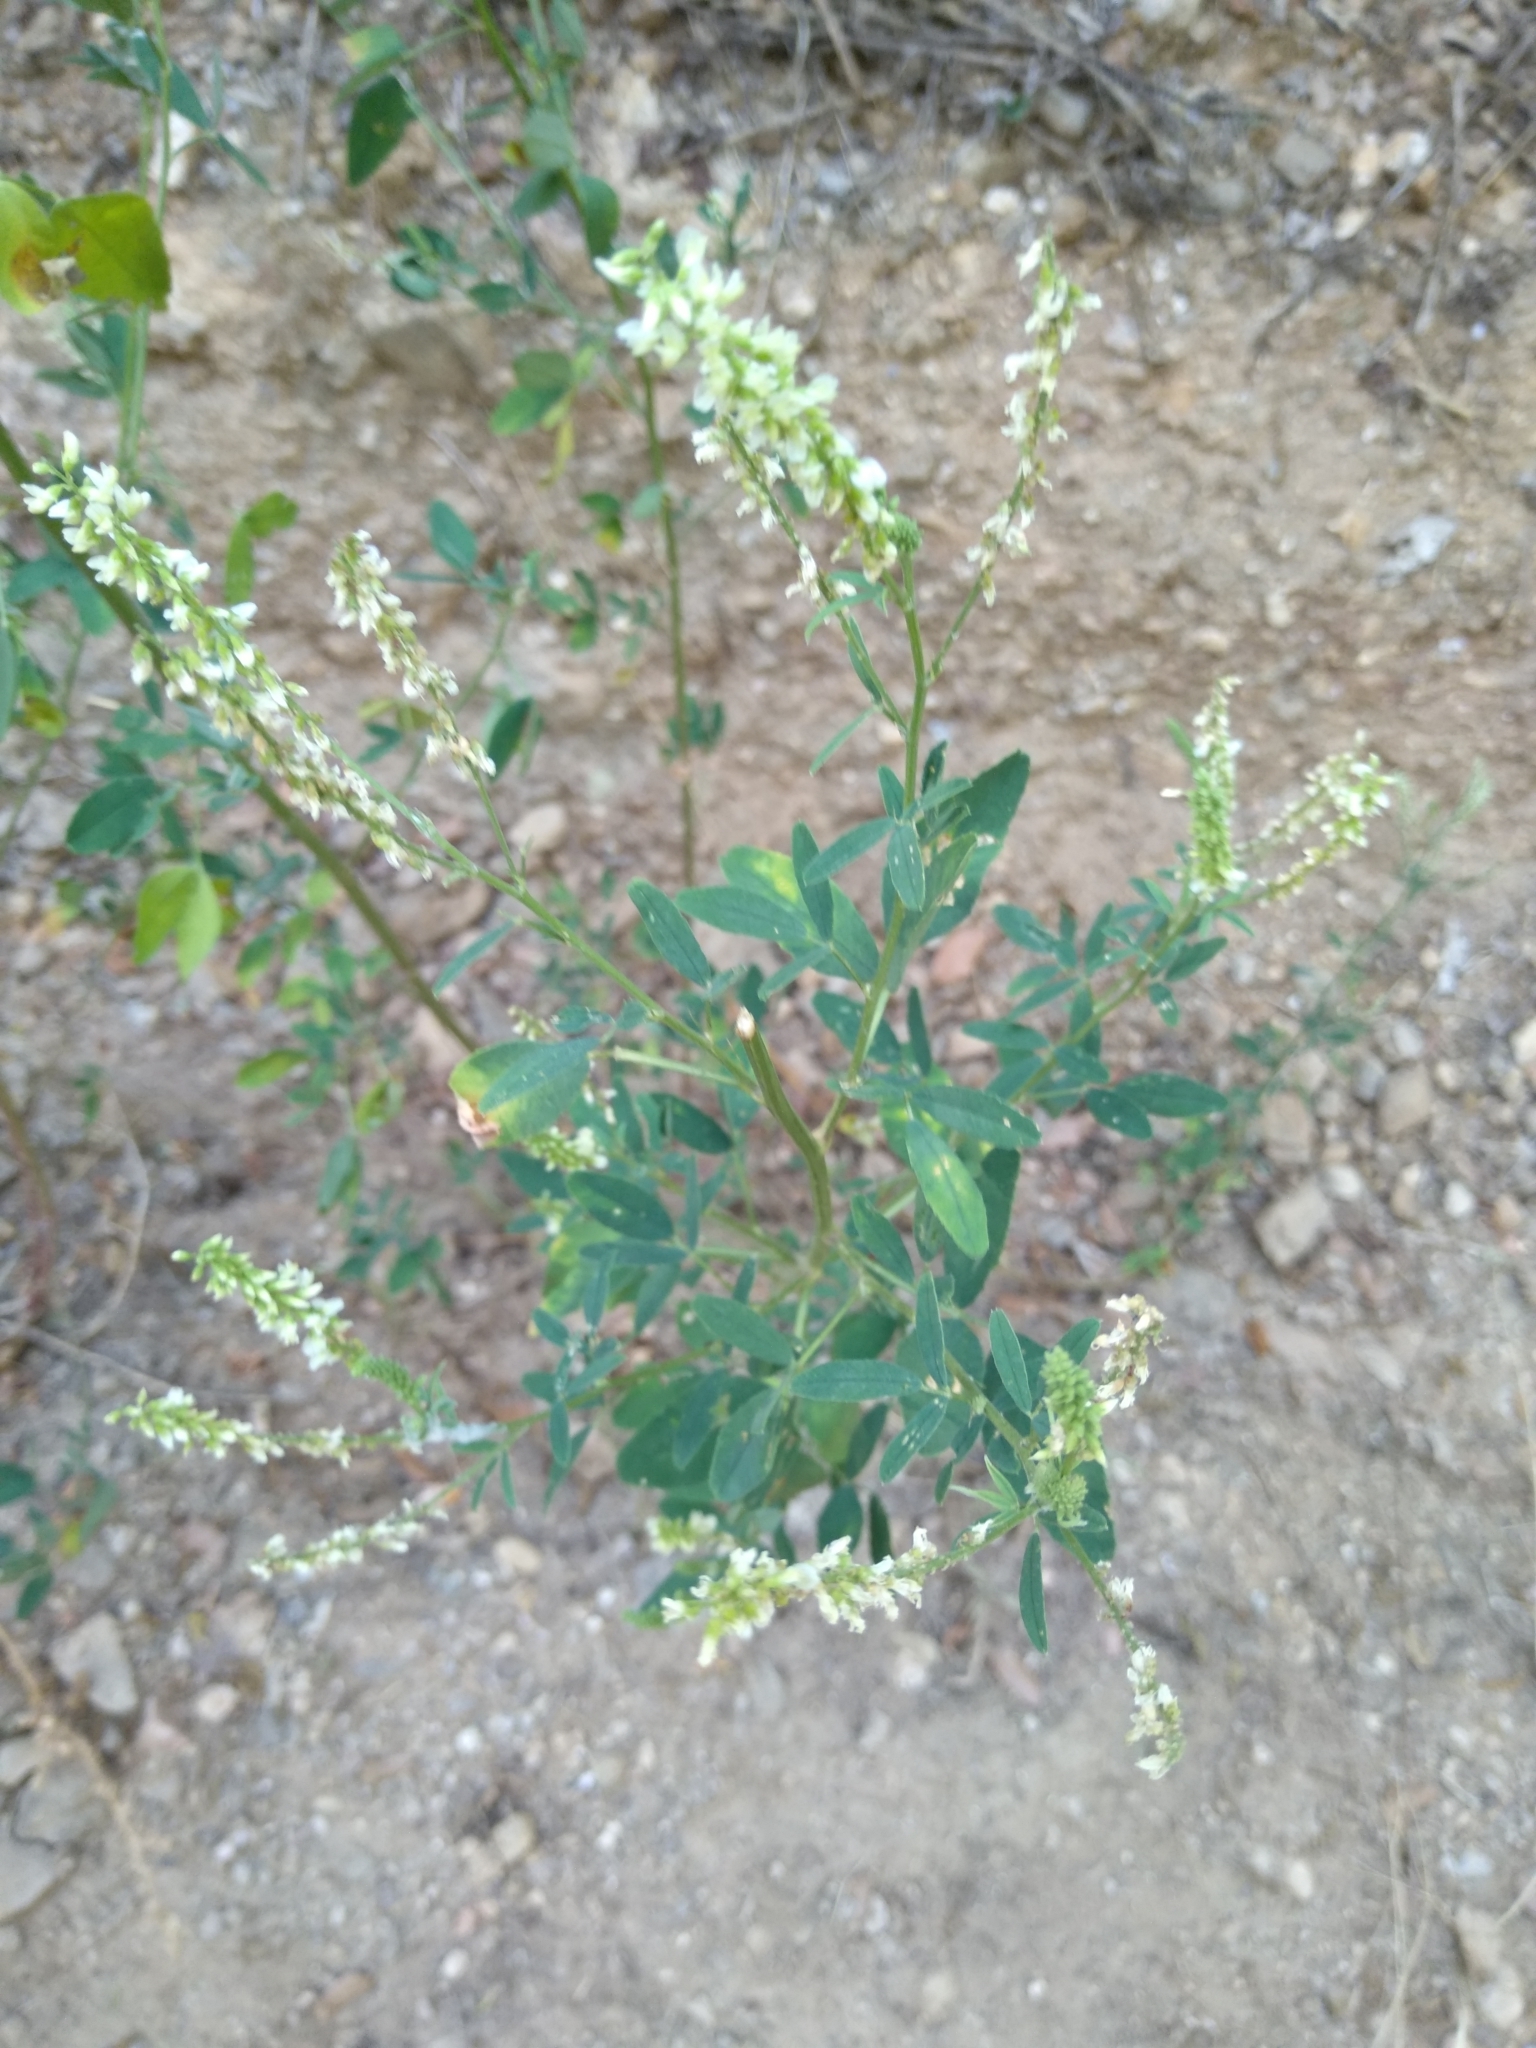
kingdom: Plantae
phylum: Tracheophyta
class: Magnoliopsida
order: Fabales
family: Fabaceae
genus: Melilotus
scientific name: Melilotus albus
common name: White melilot
